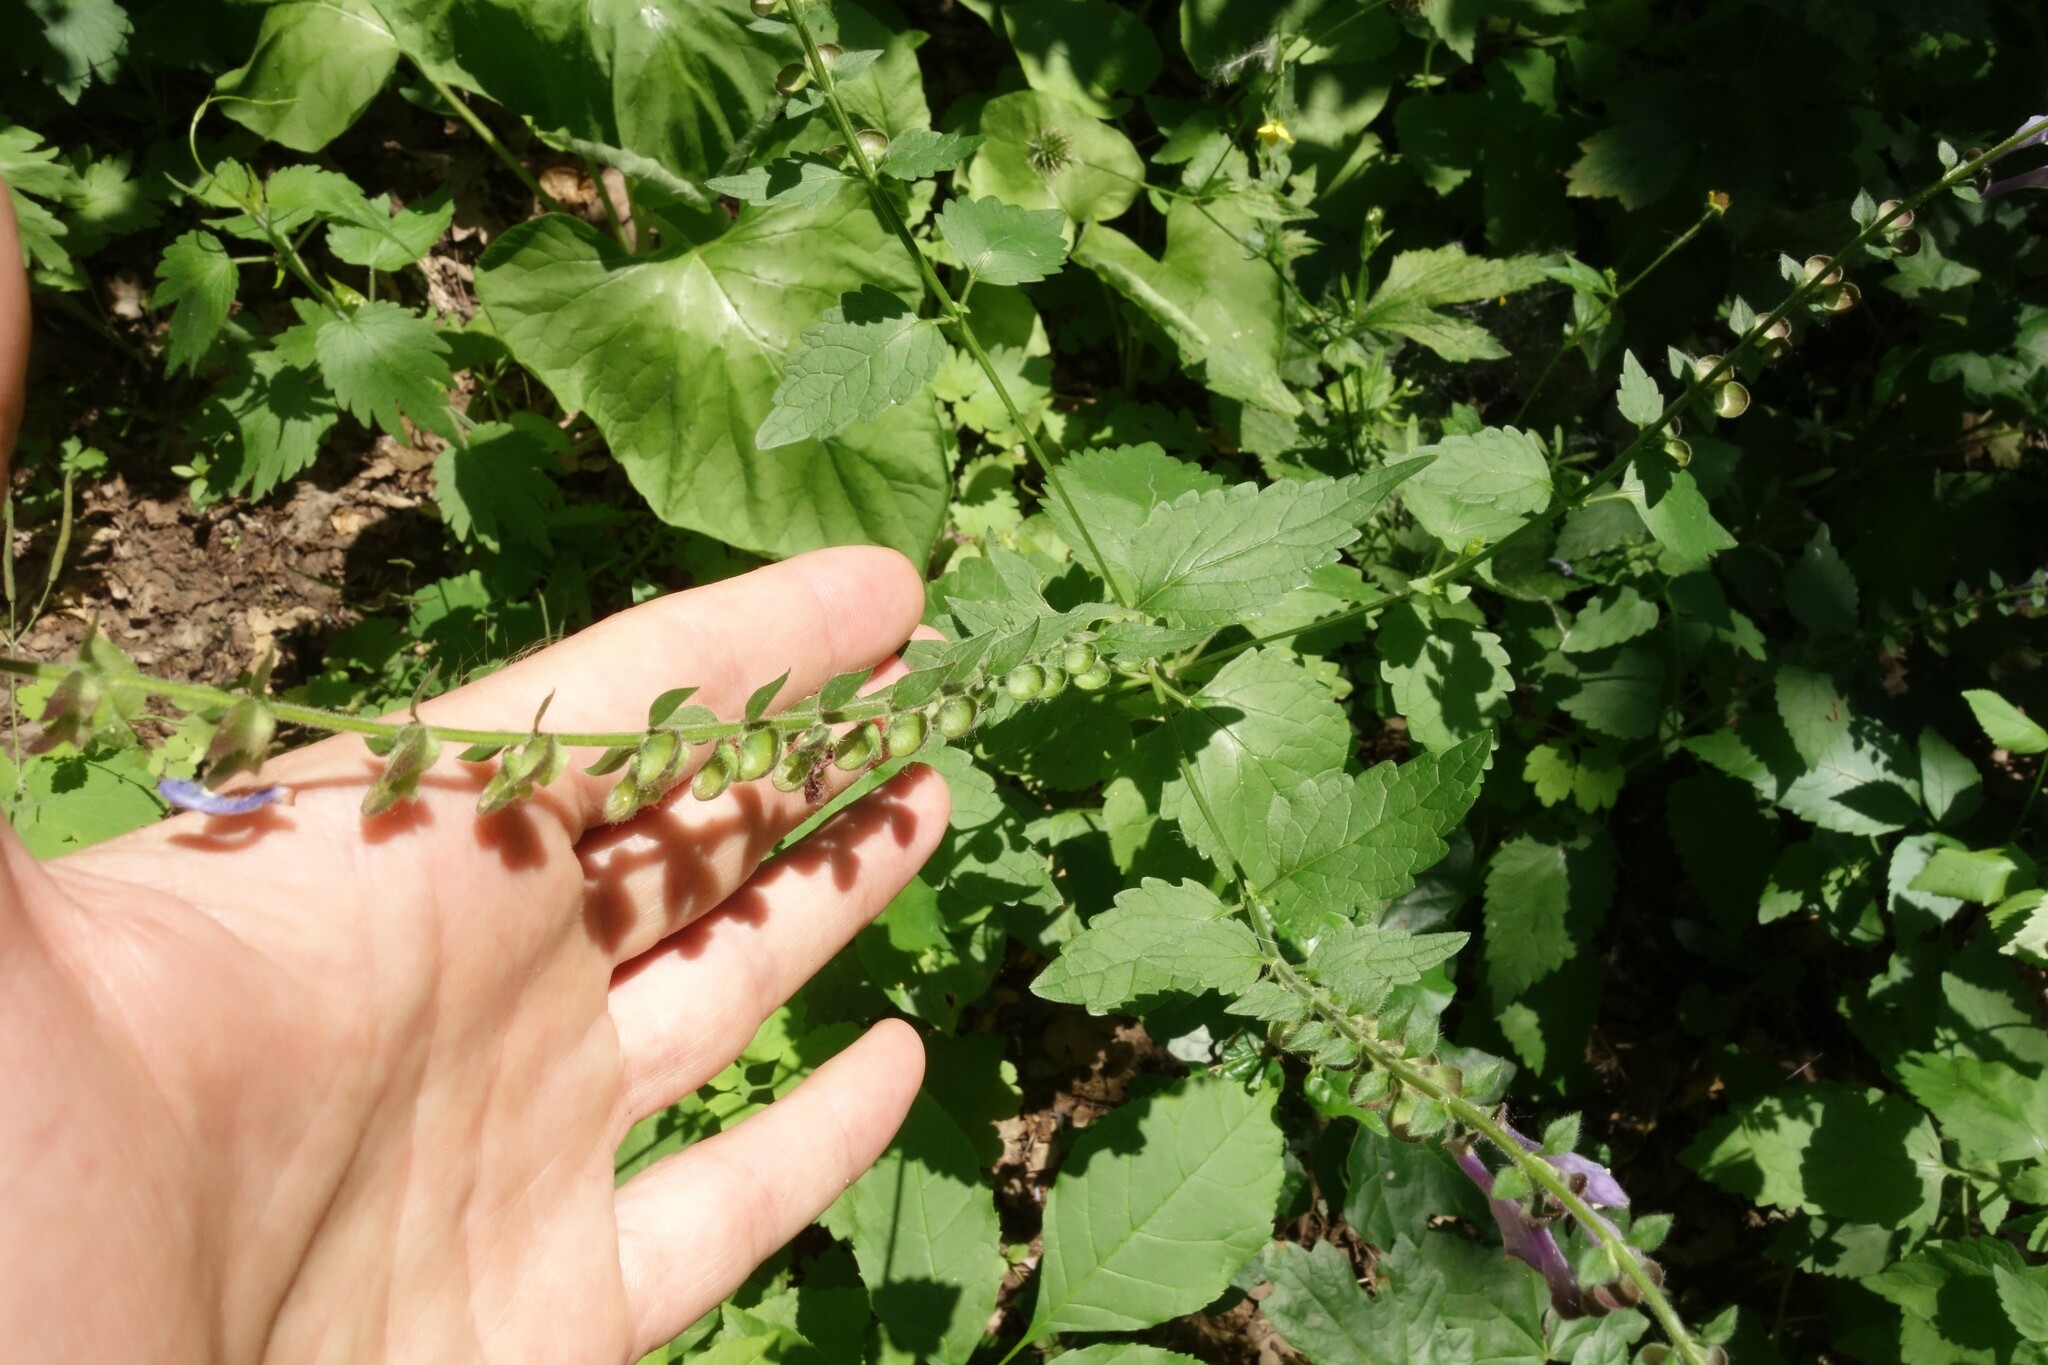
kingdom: Plantae
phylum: Tracheophyta
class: Magnoliopsida
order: Lamiales
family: Lamiaceae
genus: Scutellaria
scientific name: Scutellaria altissima
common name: Somerset skullcap
